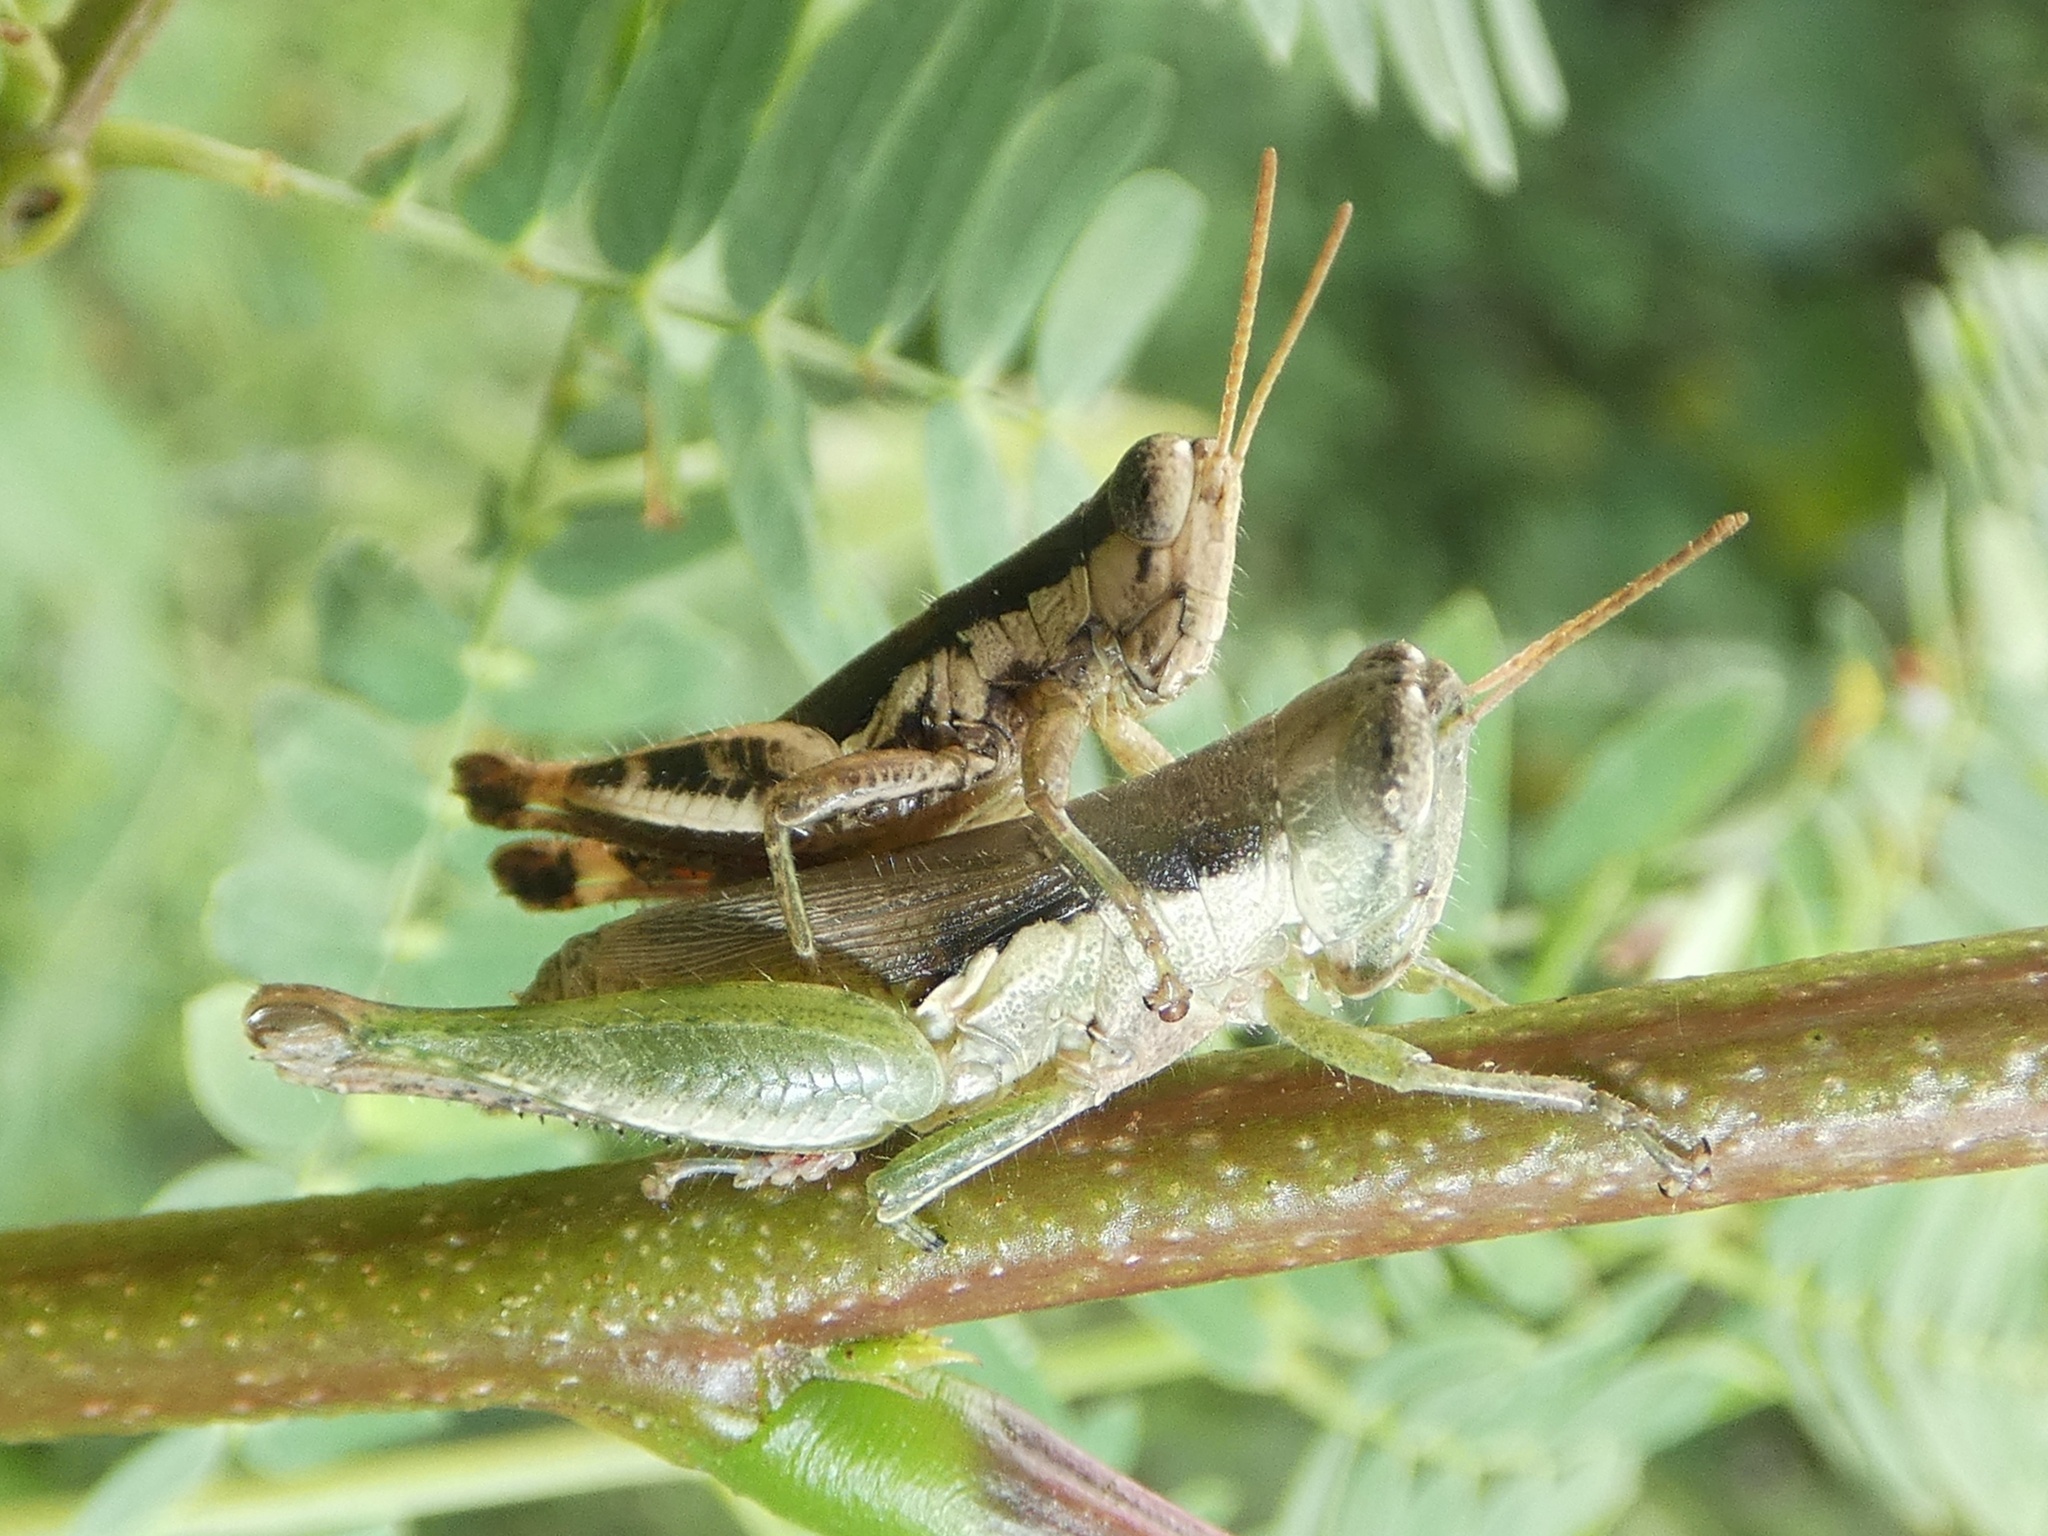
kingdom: Animalia
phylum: Arthropoda
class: Insecta
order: Orthoptera
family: Acrididae
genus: Pseudoxya
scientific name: Pseudoxya diminuta
